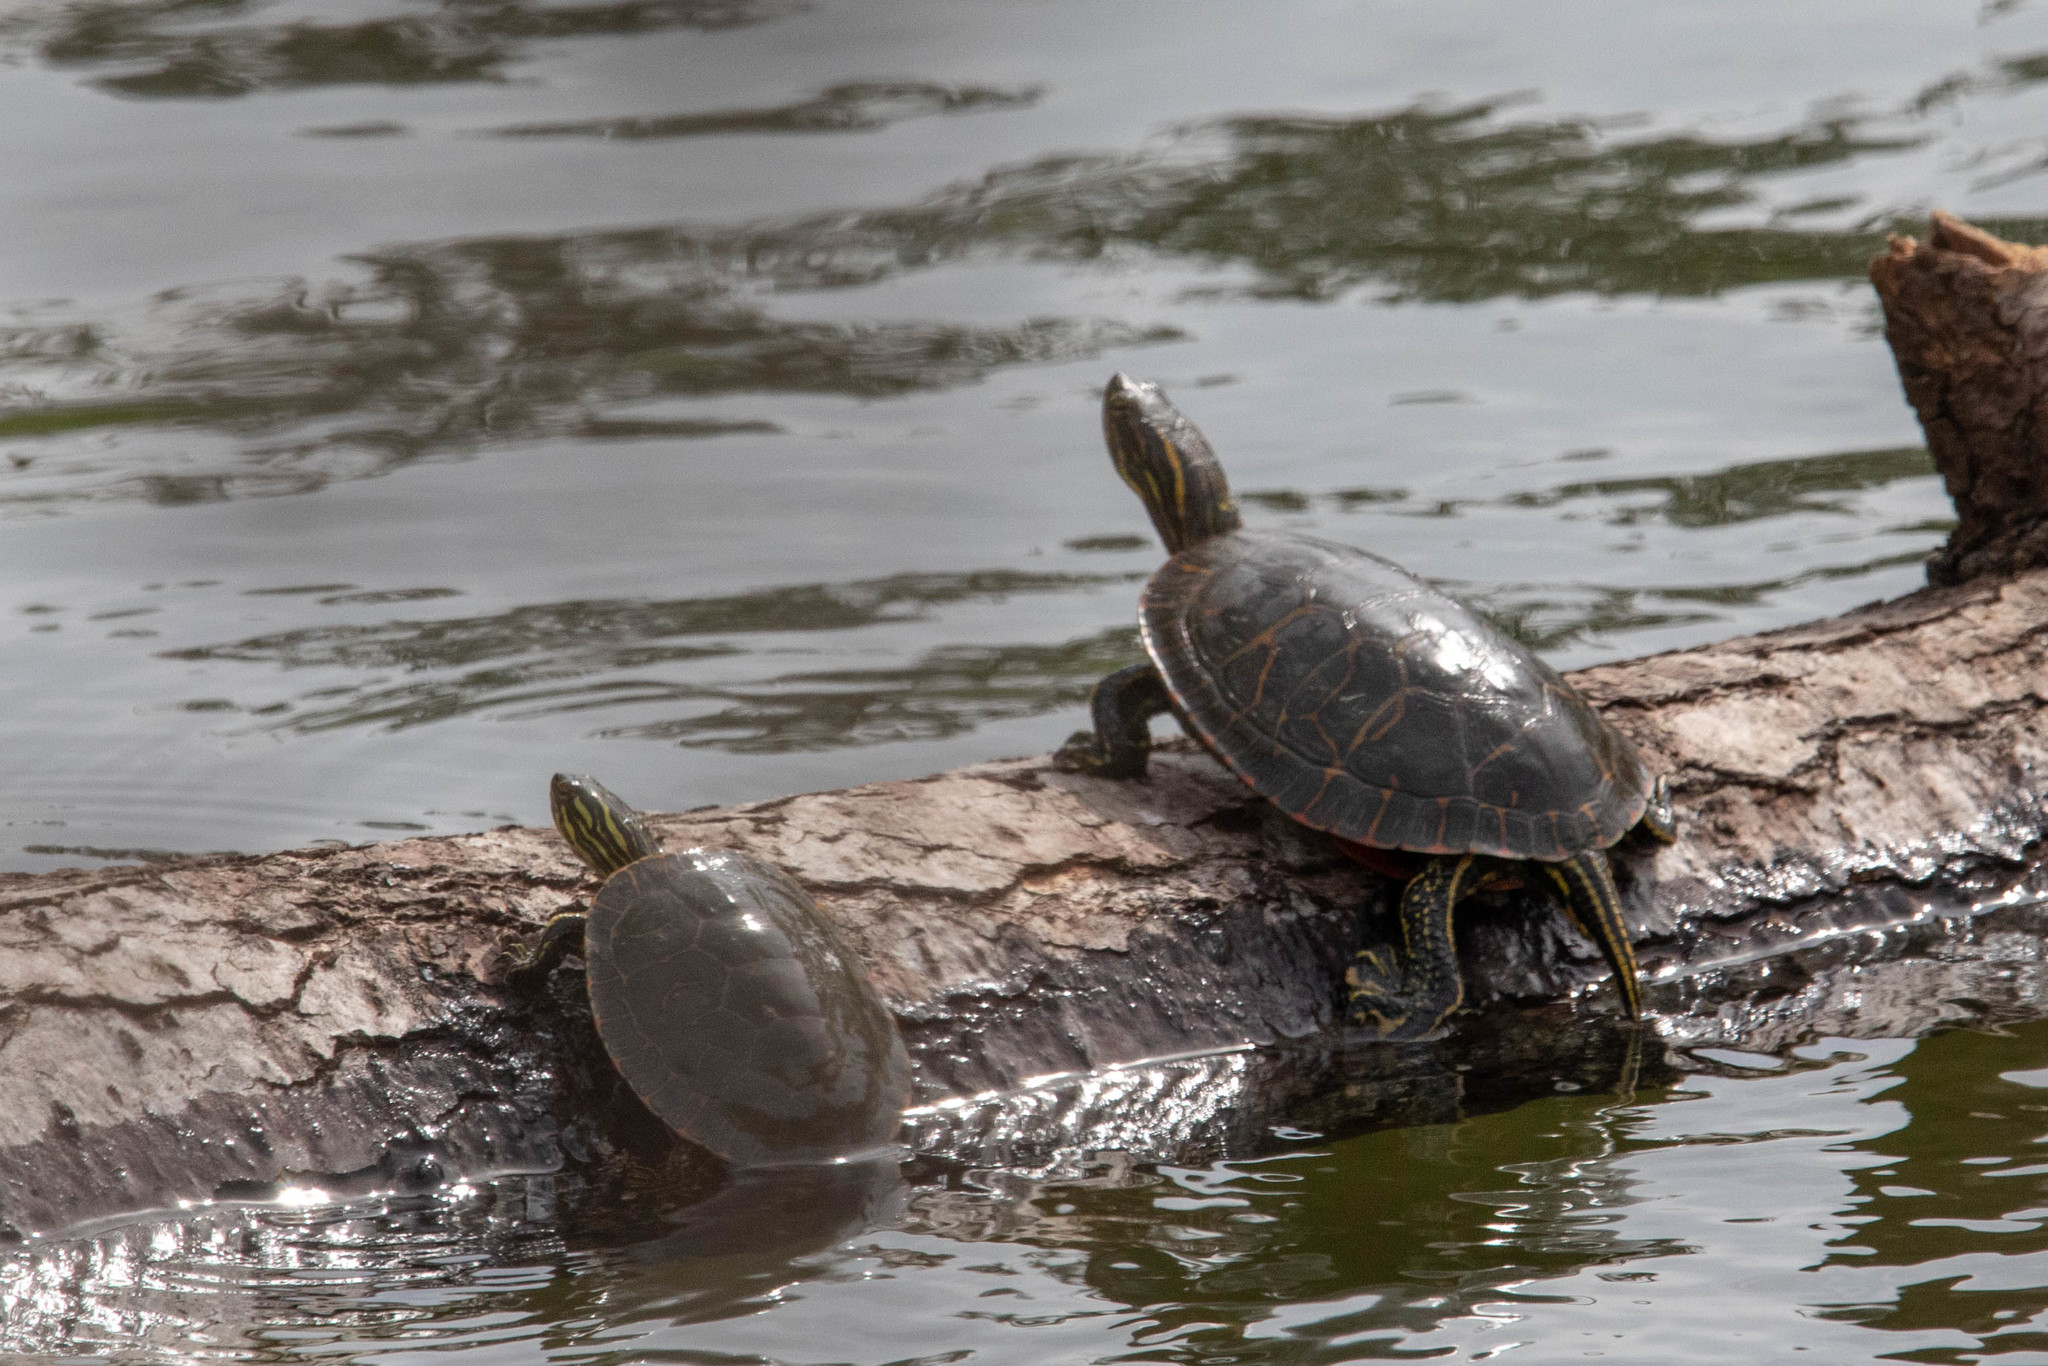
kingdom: Animalia
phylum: Chordata
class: Testudines
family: Emydidae
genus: Chrysemys
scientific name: Chrysemys picta
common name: Painted turtle
